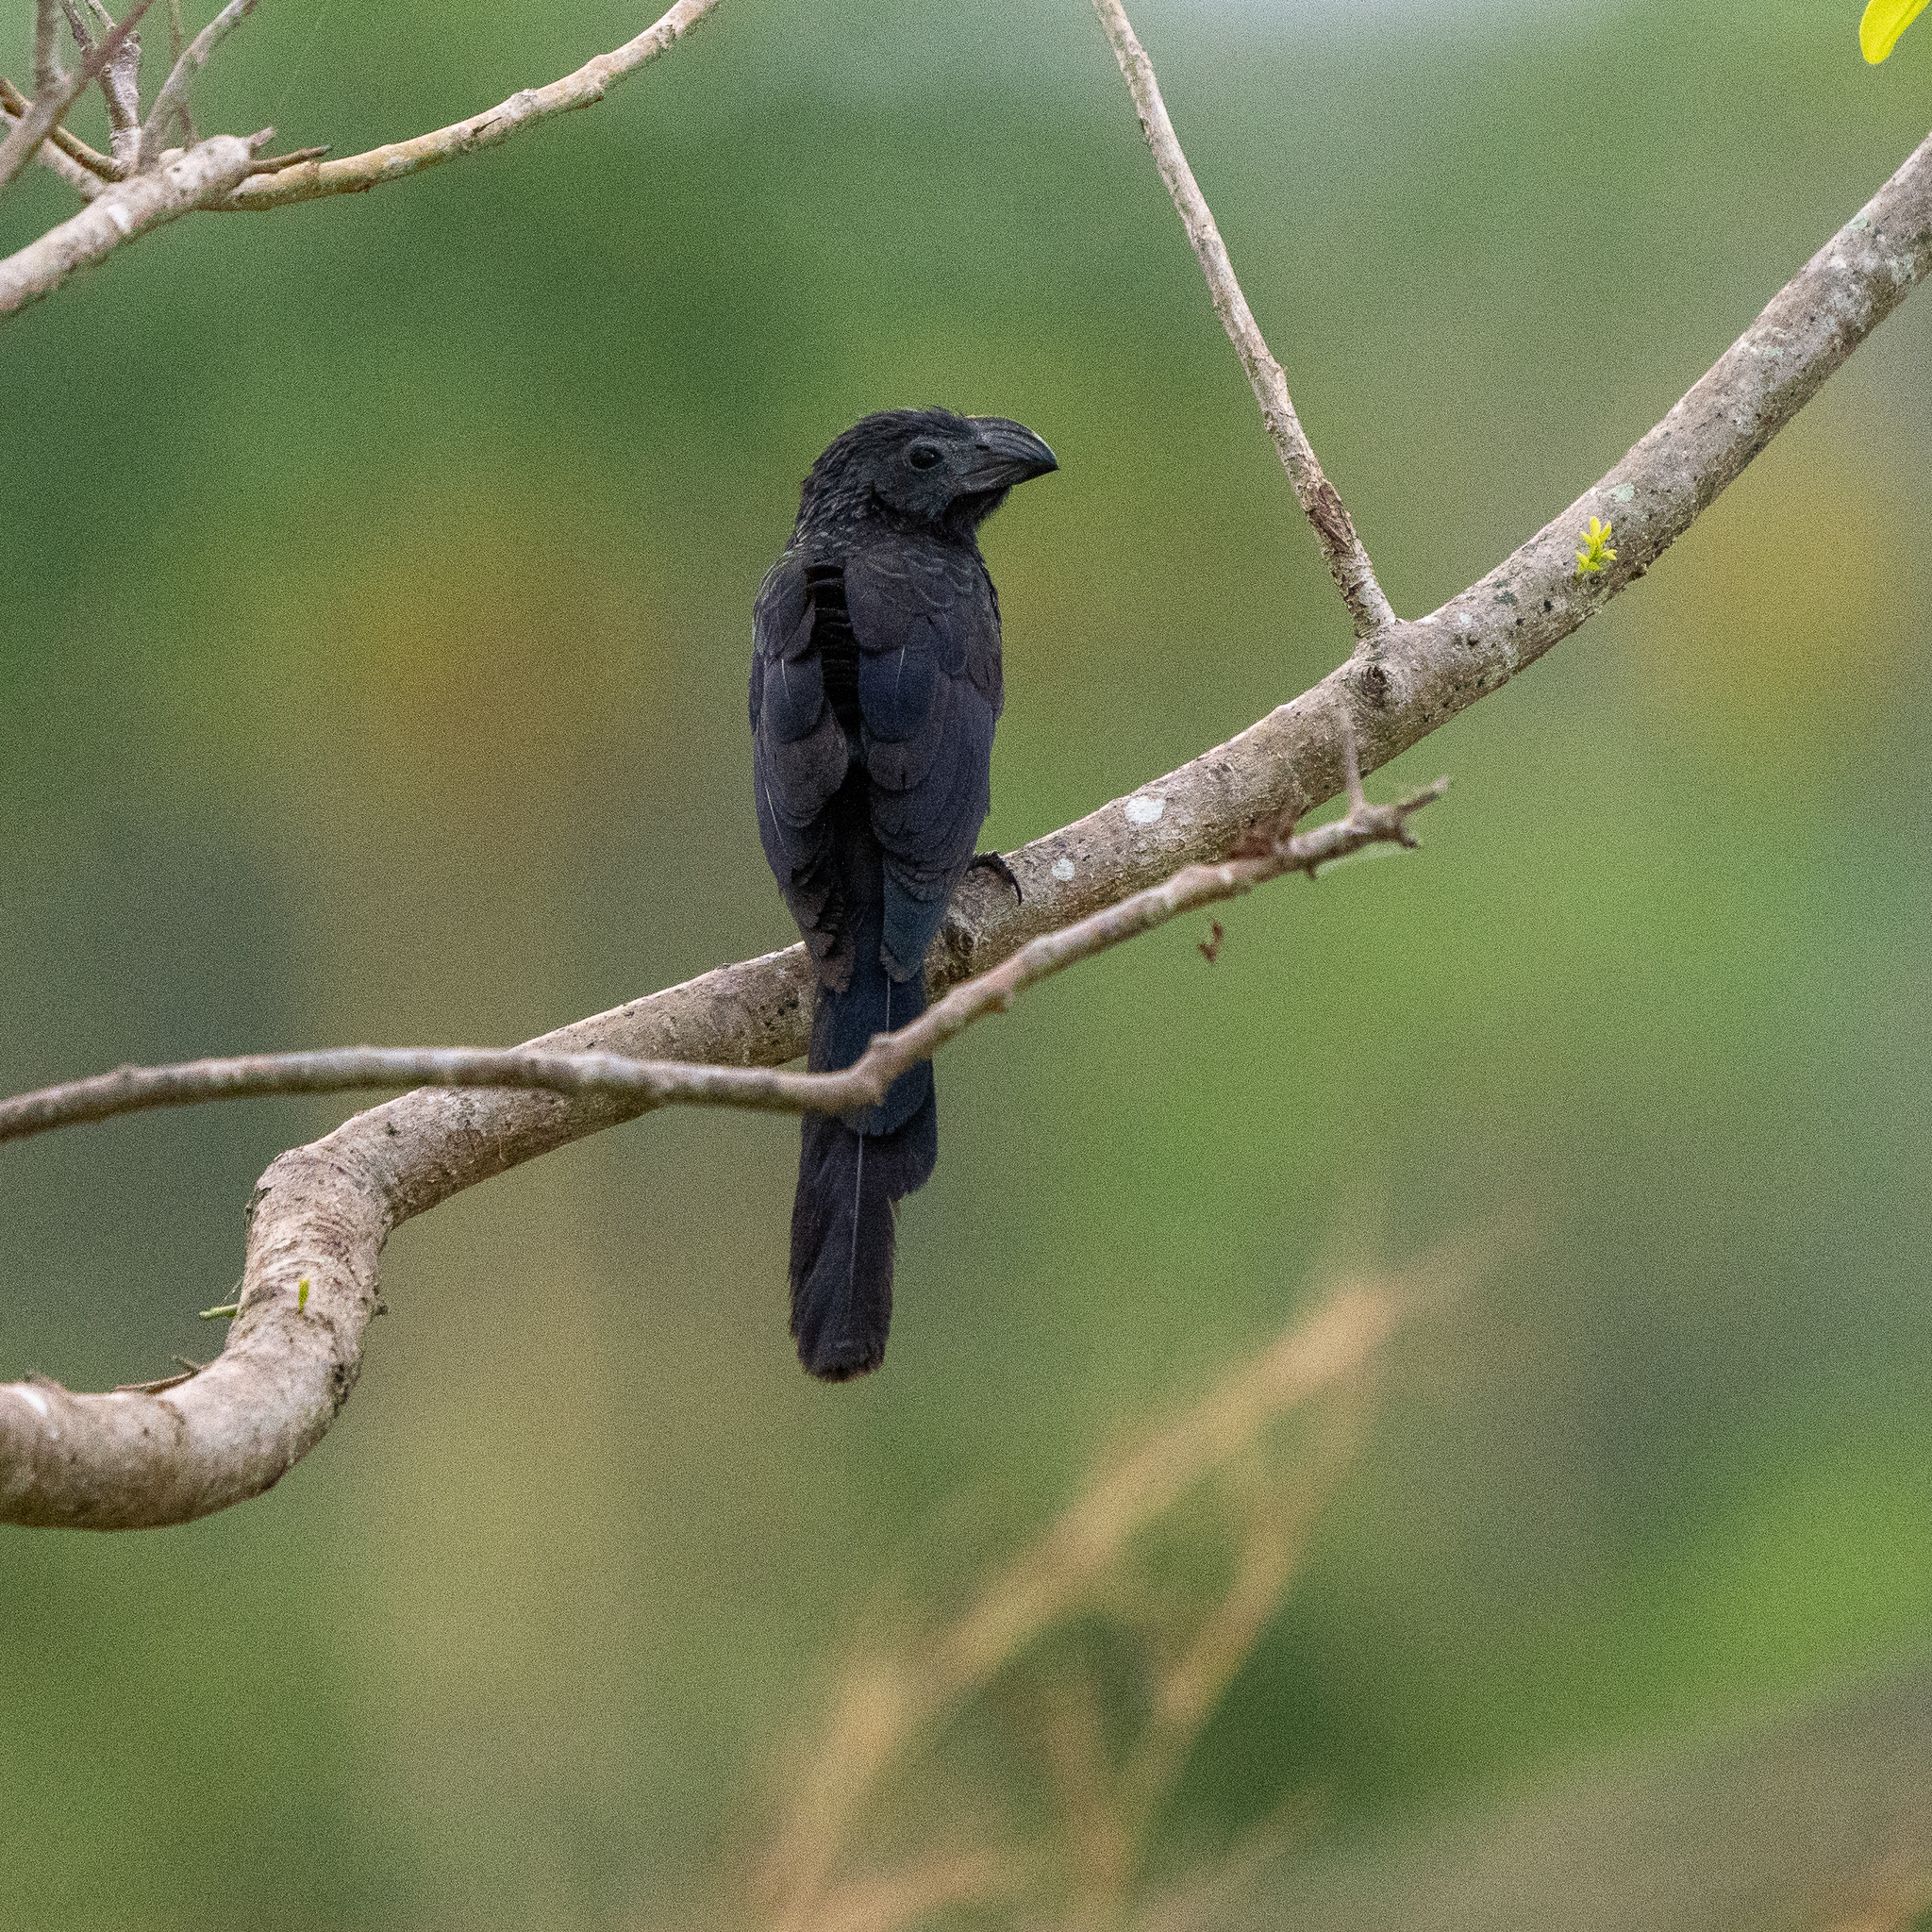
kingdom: Animalia
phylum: Chordata
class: Aves
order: Cuculiformes
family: Cuculidae
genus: Crotophaga
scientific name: Crotophaga sulcirostris
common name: Groove-billed ani
